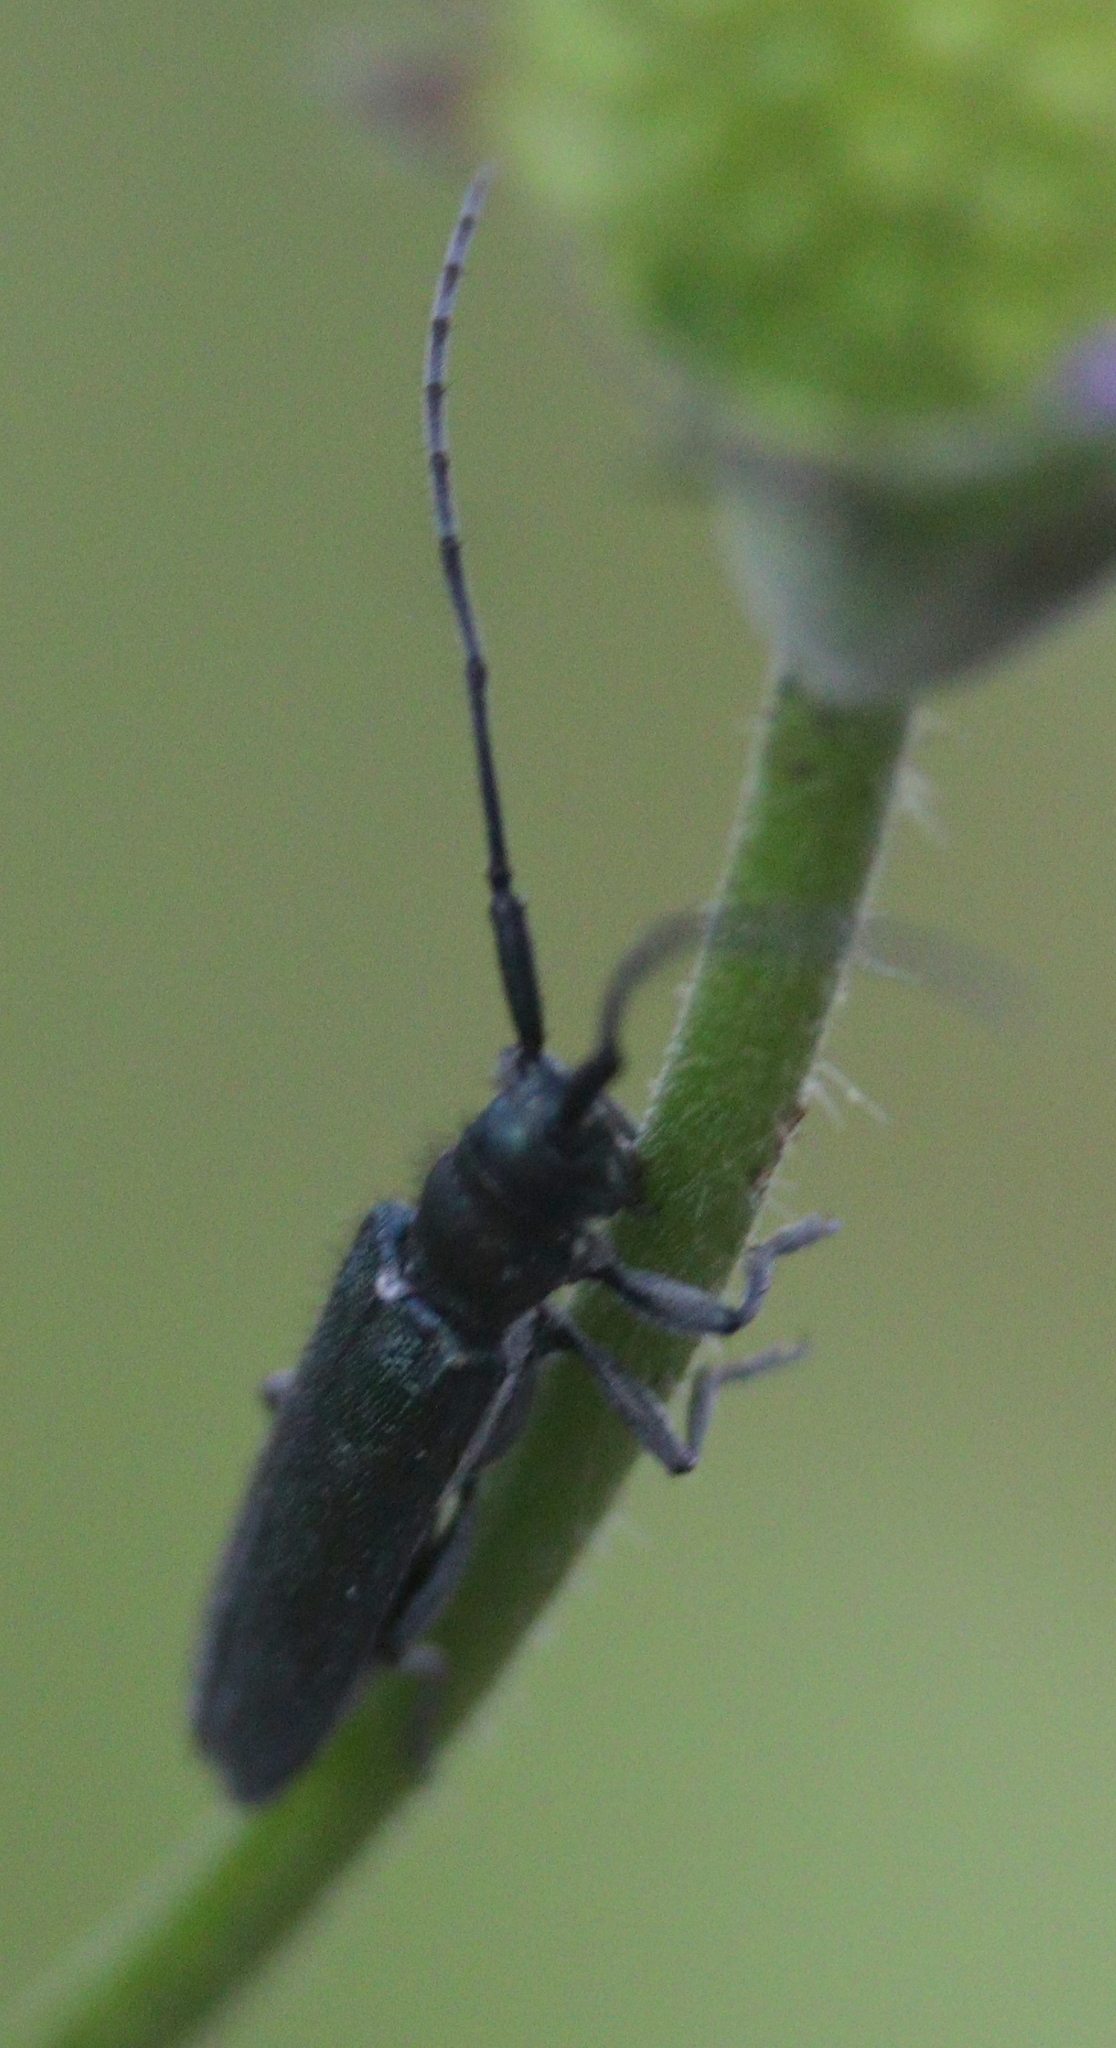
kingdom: Animalia
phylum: Arthropoda
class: Insecta
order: Coleoptera
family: Cerambycidae
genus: Agapanthia
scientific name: Agapanthia intermedia
